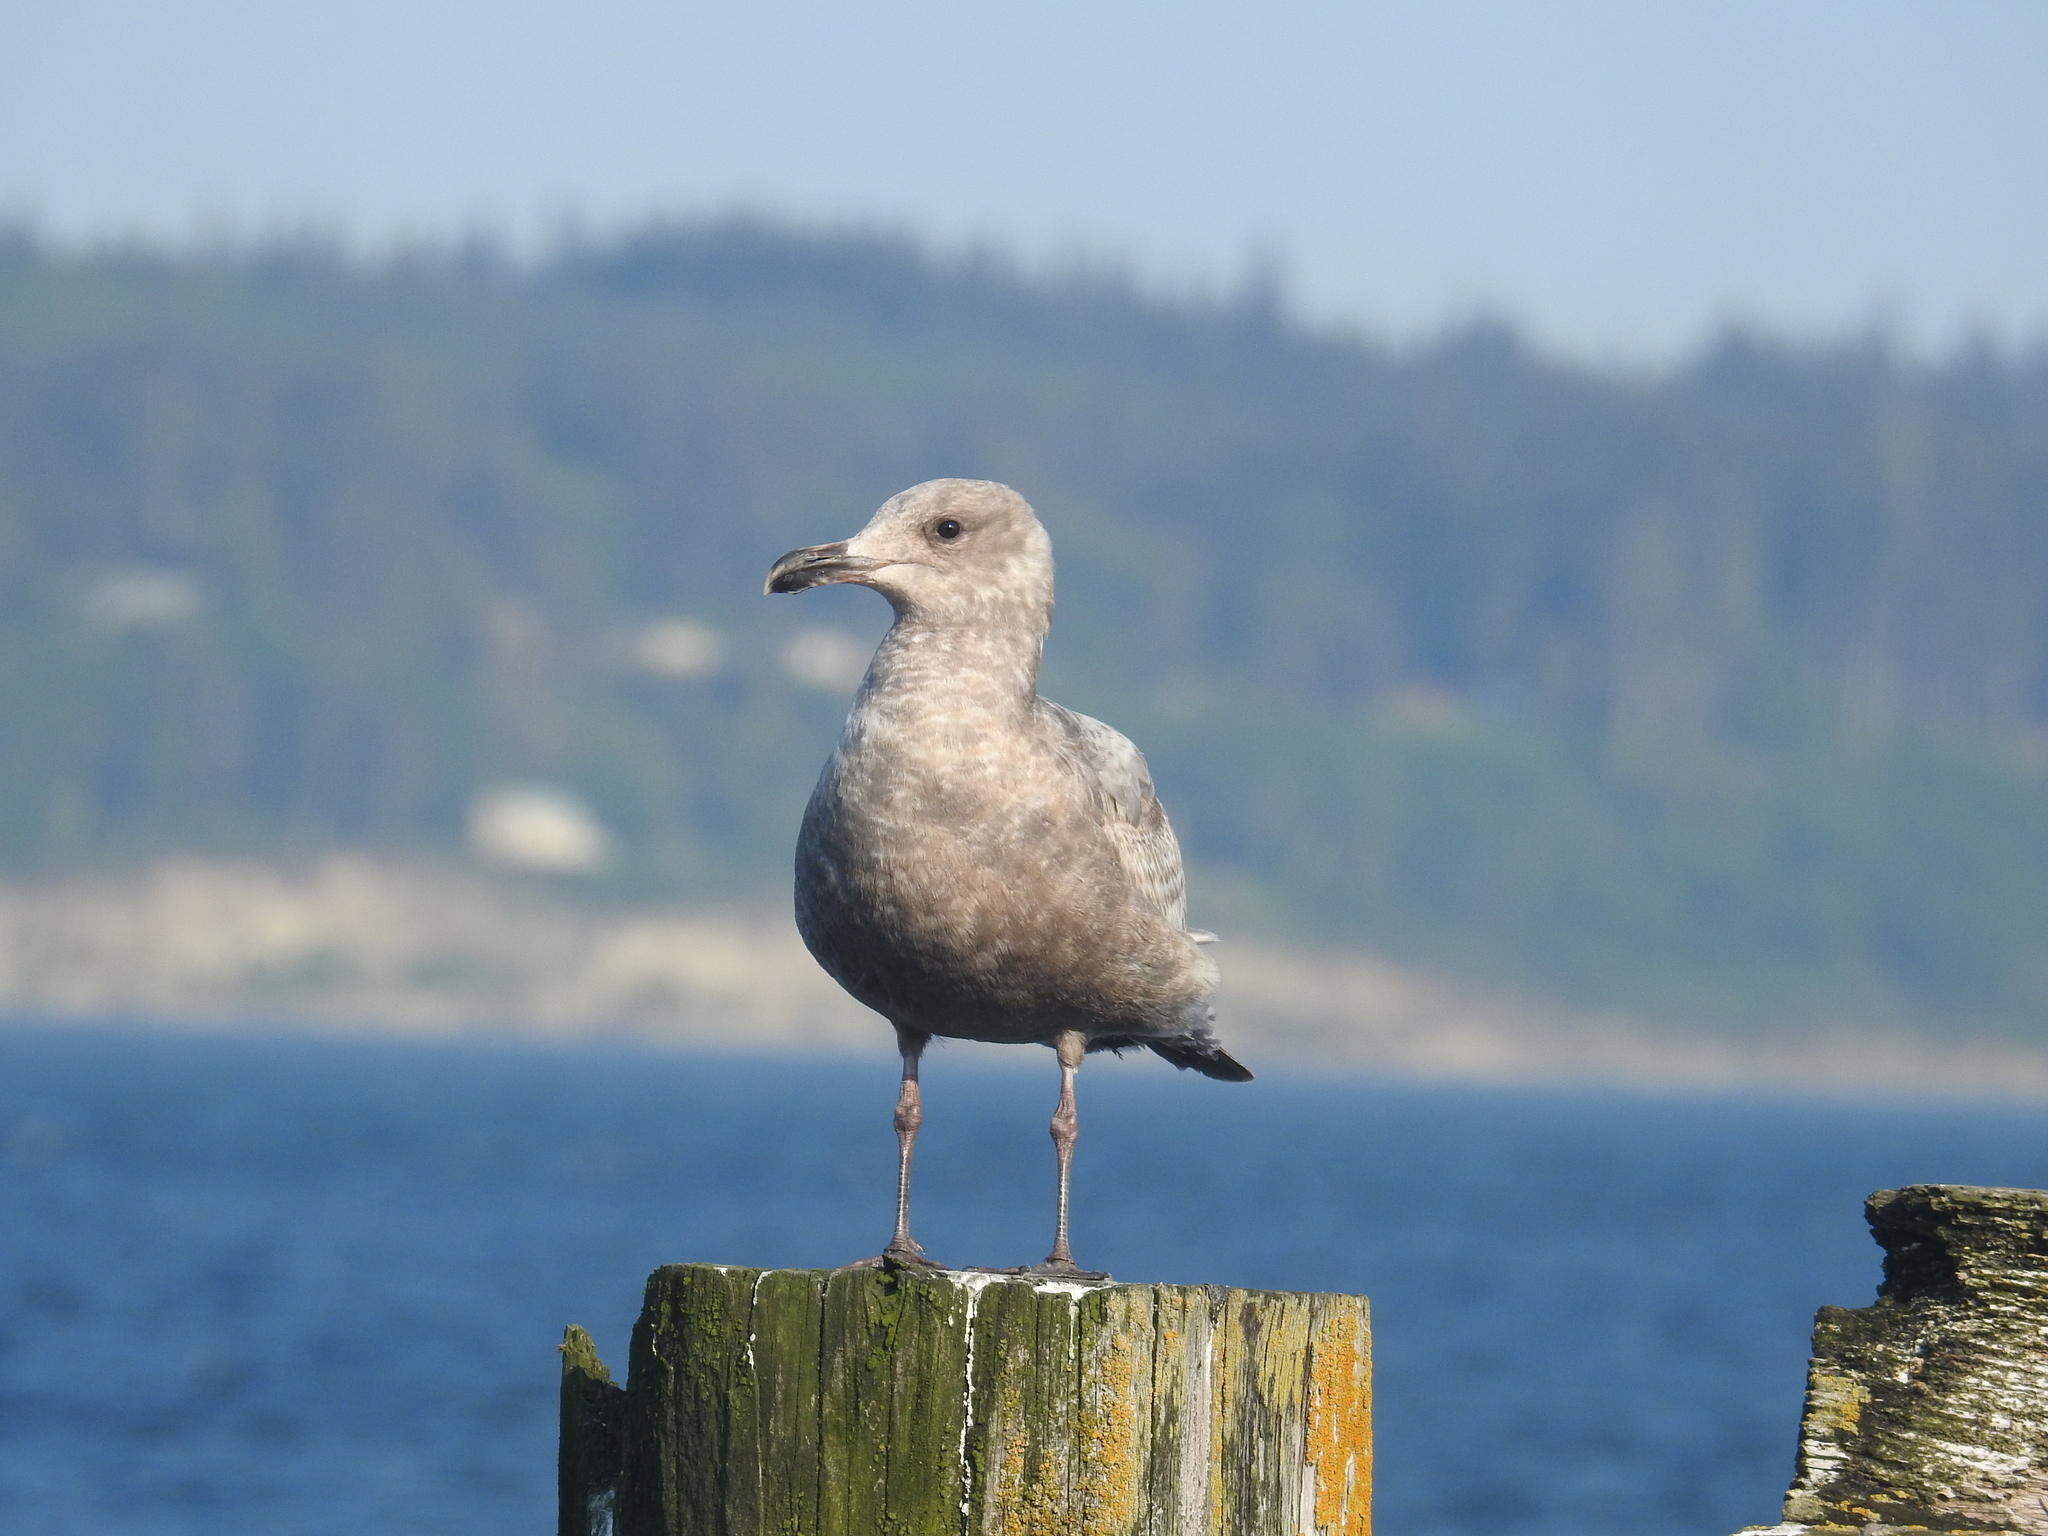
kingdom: Animalia
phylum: Chordata
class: Aves
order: Charadriiformes
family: Laridae
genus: Larus
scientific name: Larus glaucescens
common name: Glaucous-winged gull
